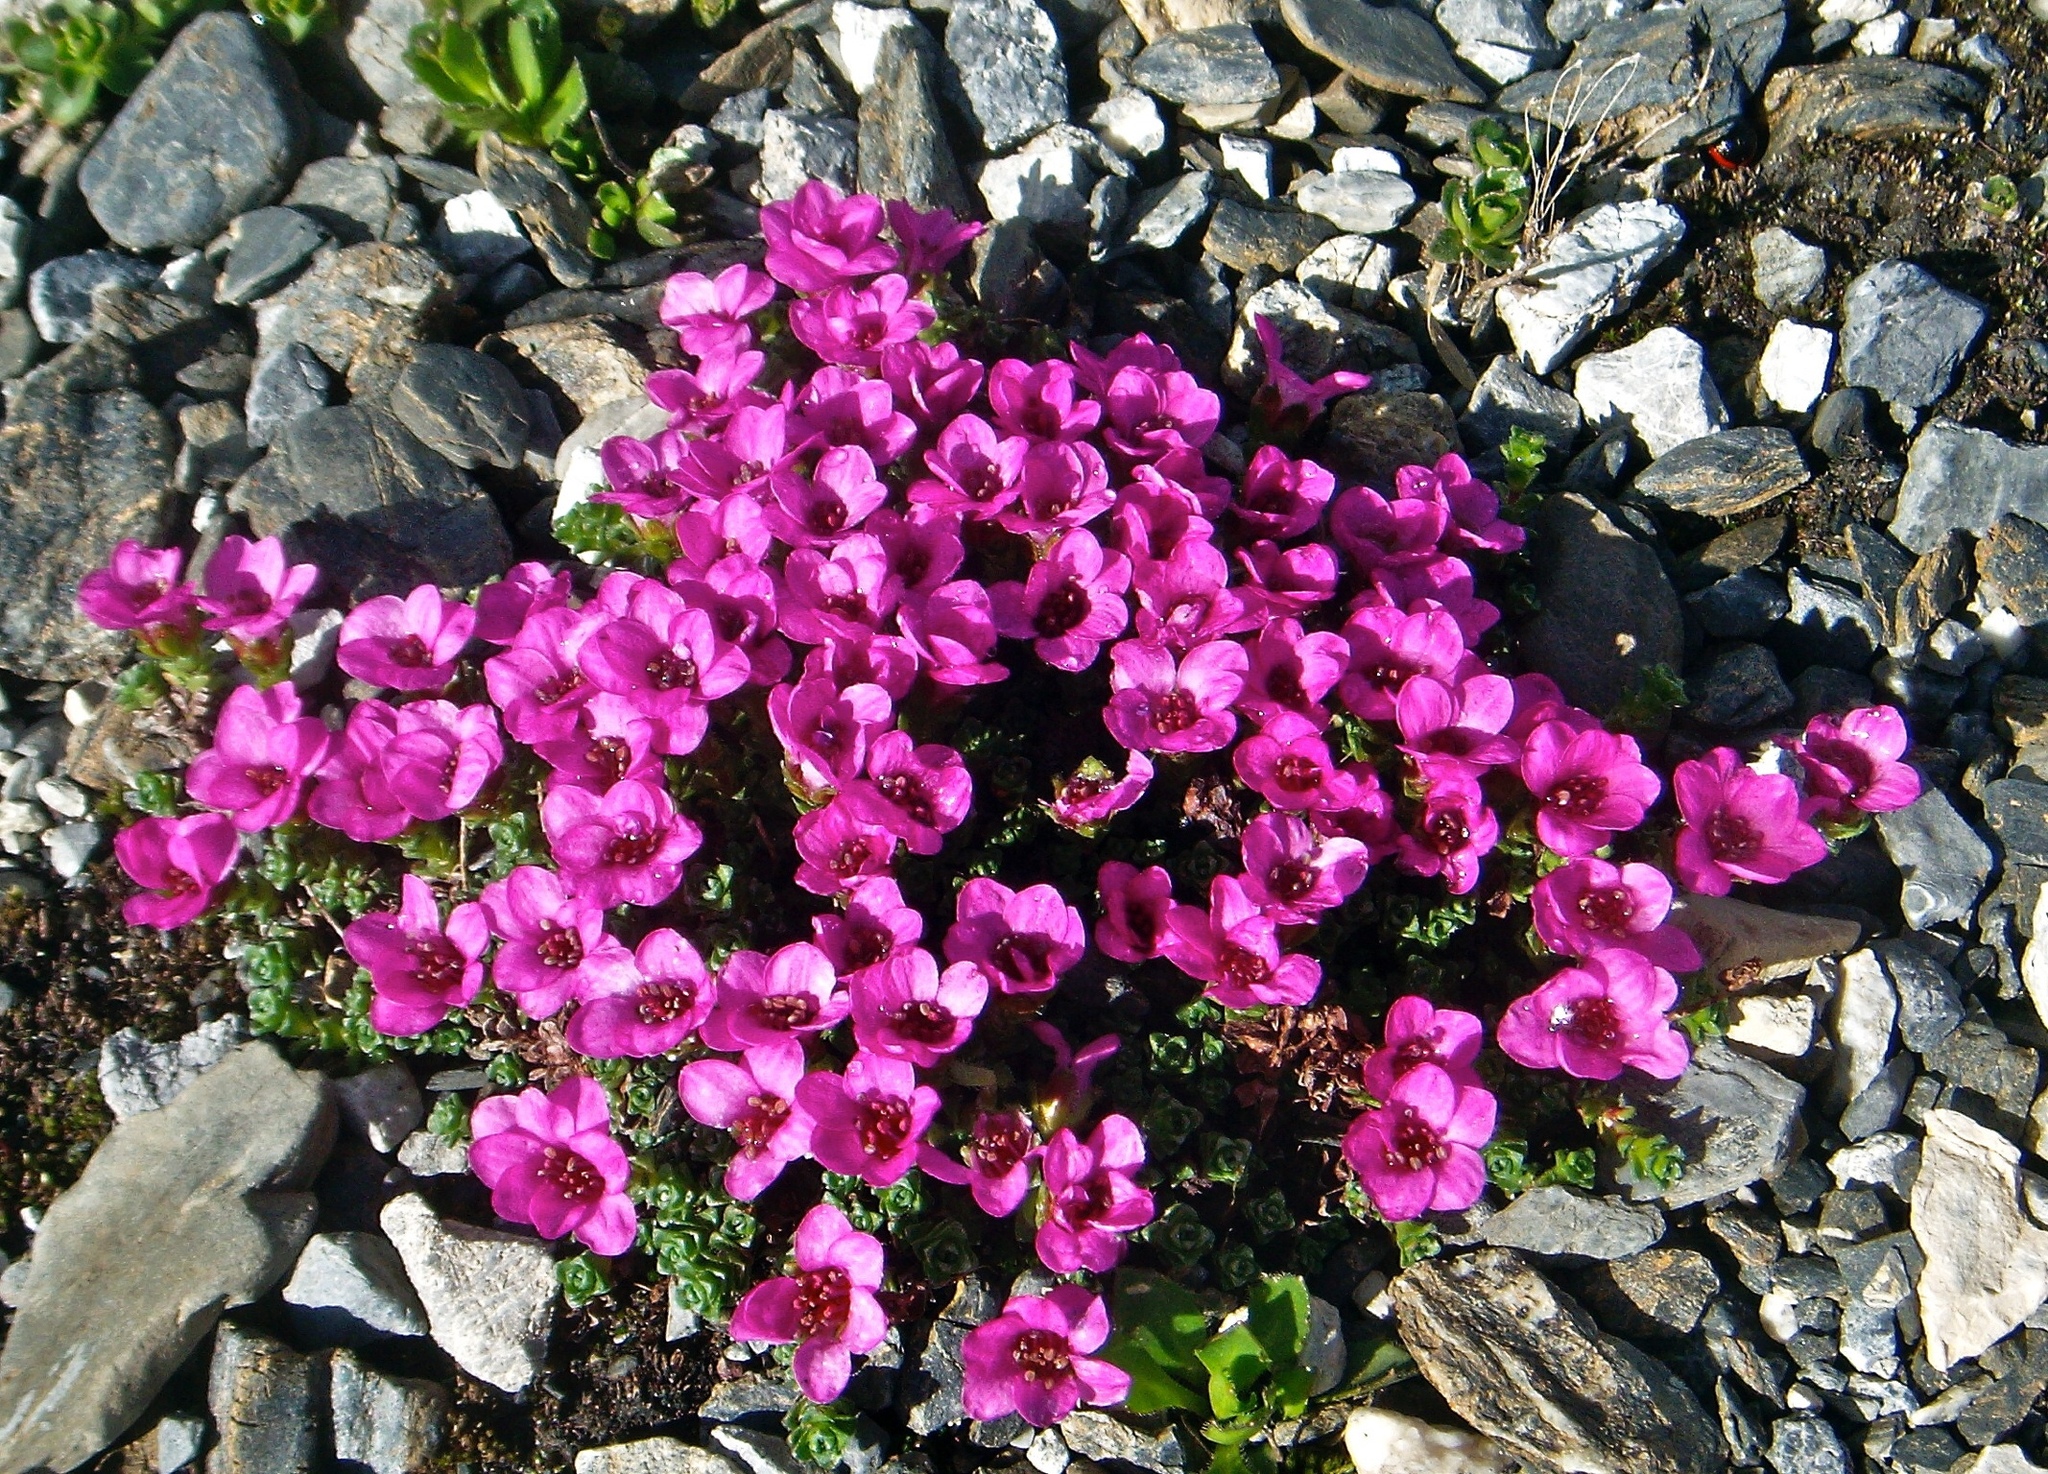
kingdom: Plantae
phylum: Tracheophyta
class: Magnoliopsida
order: Saxifragales
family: Saxifragaceae
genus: Saxifraga
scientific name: Saxifraga oppositifolia
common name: Purple saxifrage
